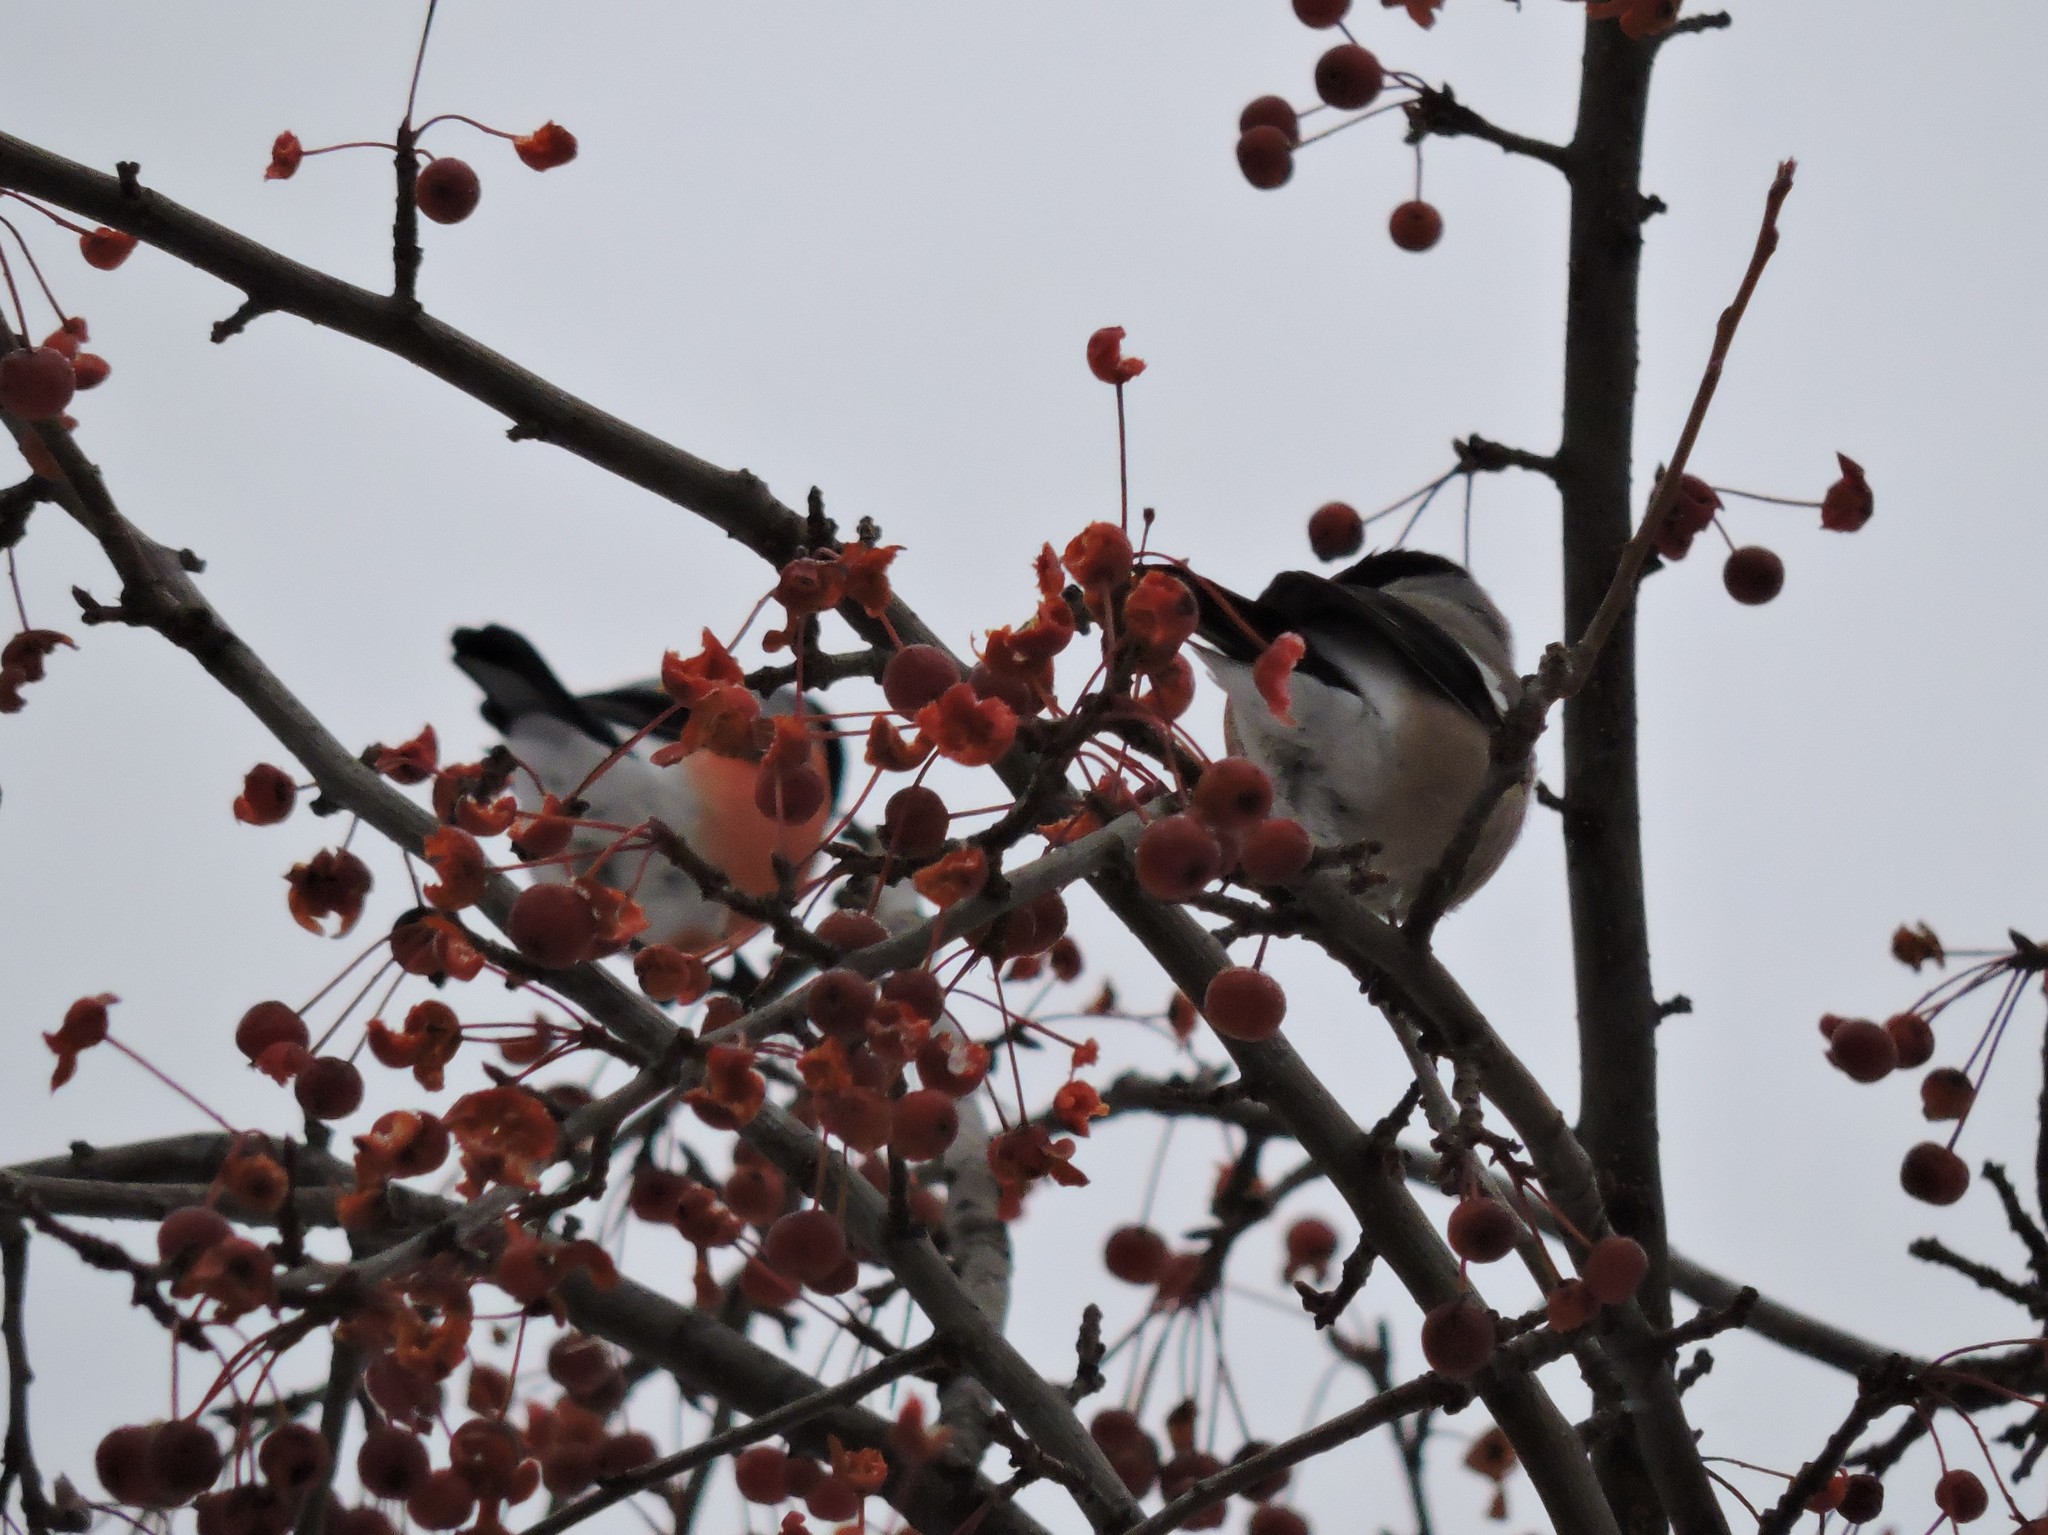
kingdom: Animalia
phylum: Chordata
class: Aves
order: Passeriformes
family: Fringillidae
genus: Pyrrhula
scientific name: Pyrrhula pyrrhula
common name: Eurasian bullfinch
